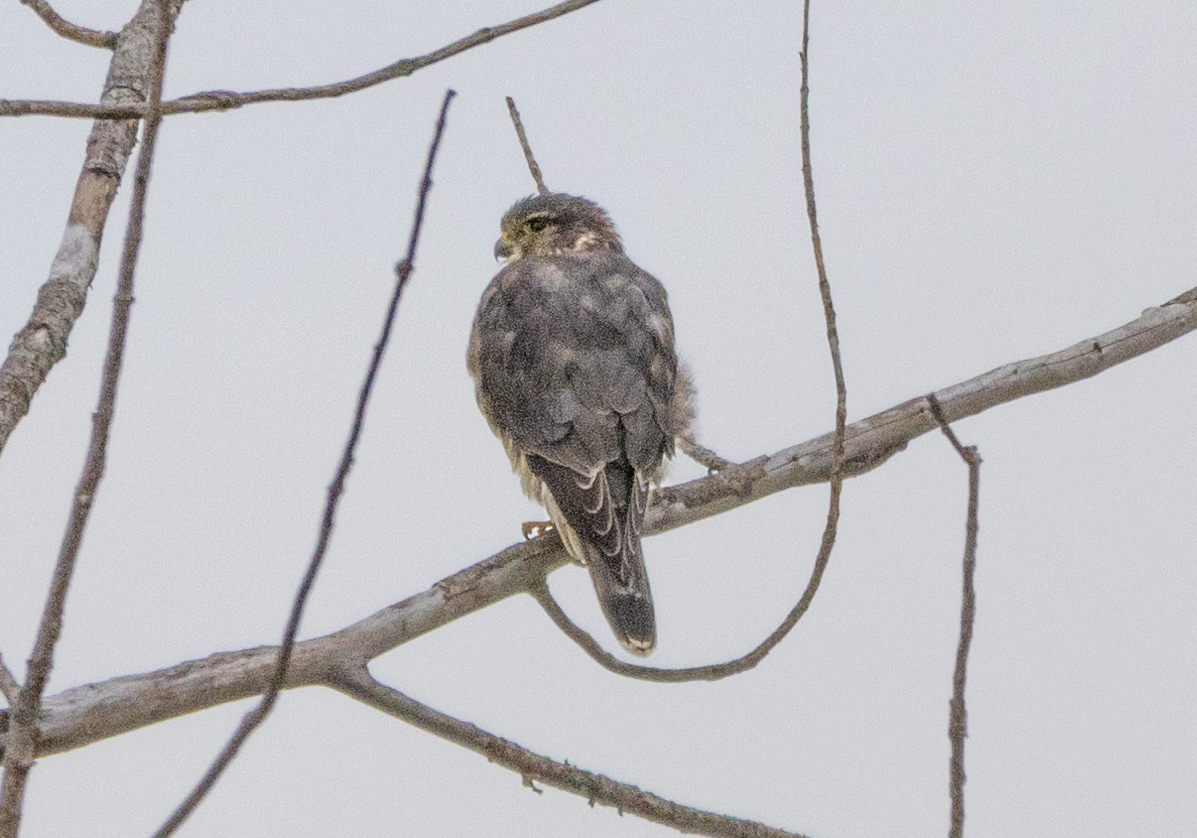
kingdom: Animalia
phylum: Chordata
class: Aves
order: Falconiformes
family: Falconidae
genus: Falco
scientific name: Falco columbarius
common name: Merlin
